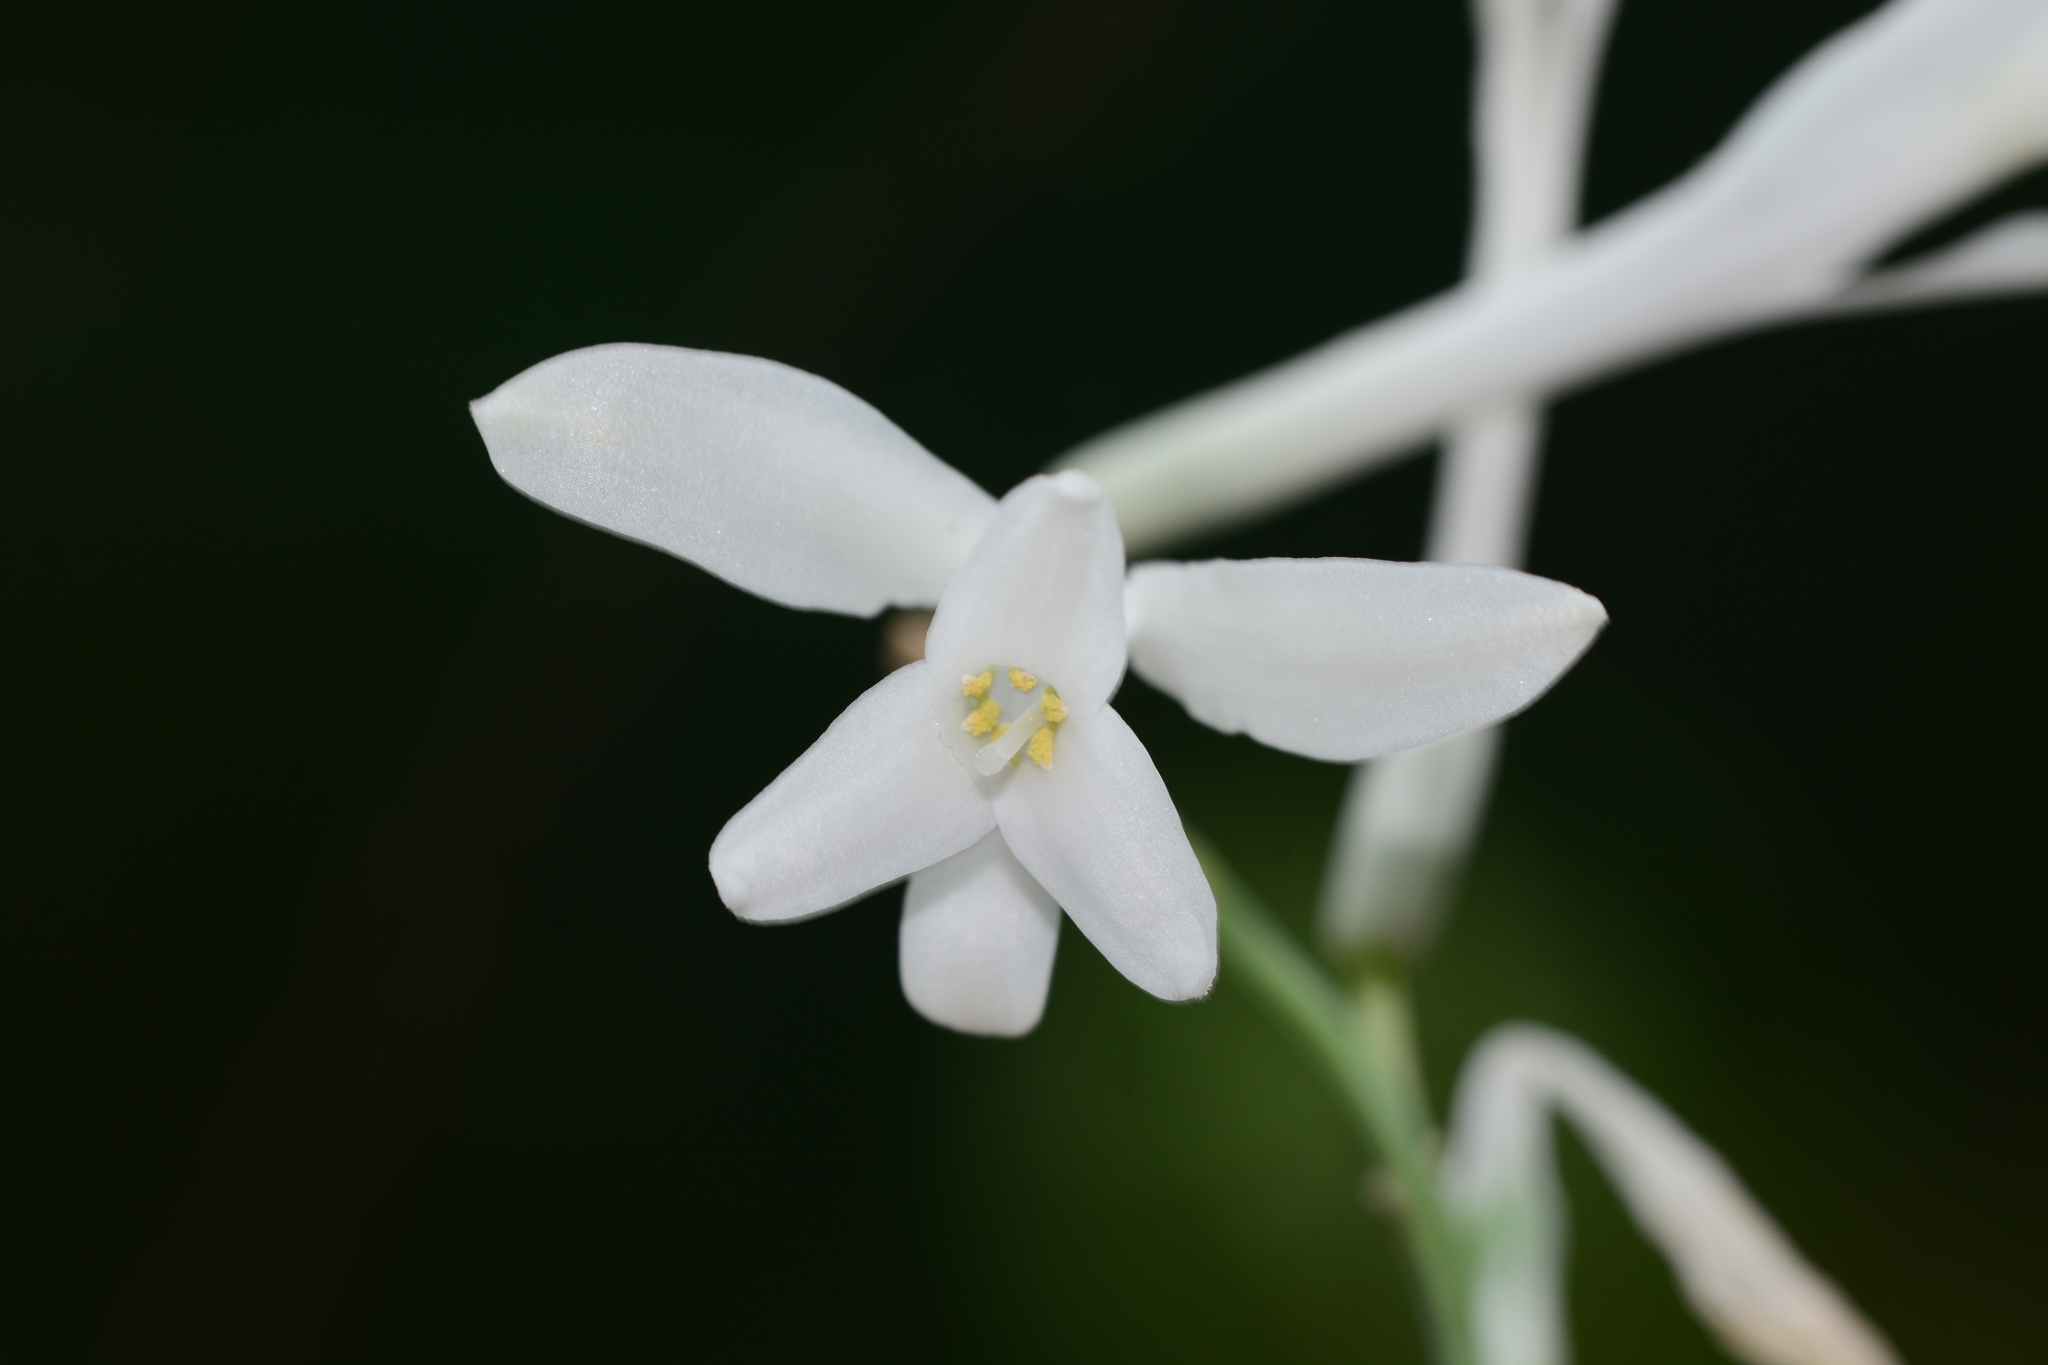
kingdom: Plantae
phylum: Tracheophyta
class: Liliopsida
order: Asparagales
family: Asparagaceae
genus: Dipcadi
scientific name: Dipcadi concanense
